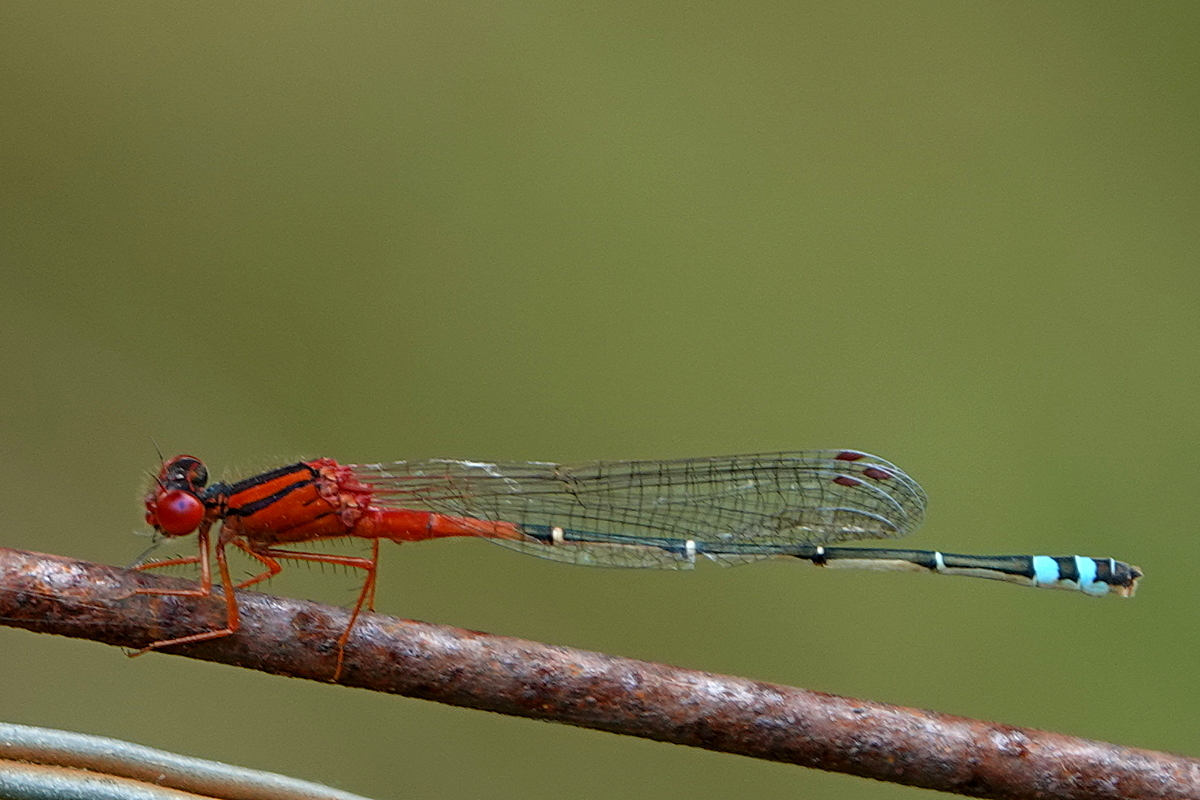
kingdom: Animalia
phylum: Arthropoda
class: Insecta
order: Odonata
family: Coenagrionidae
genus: Xanthagrion
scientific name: Xanthagrion erythroneurum
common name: Red and blue damsel
